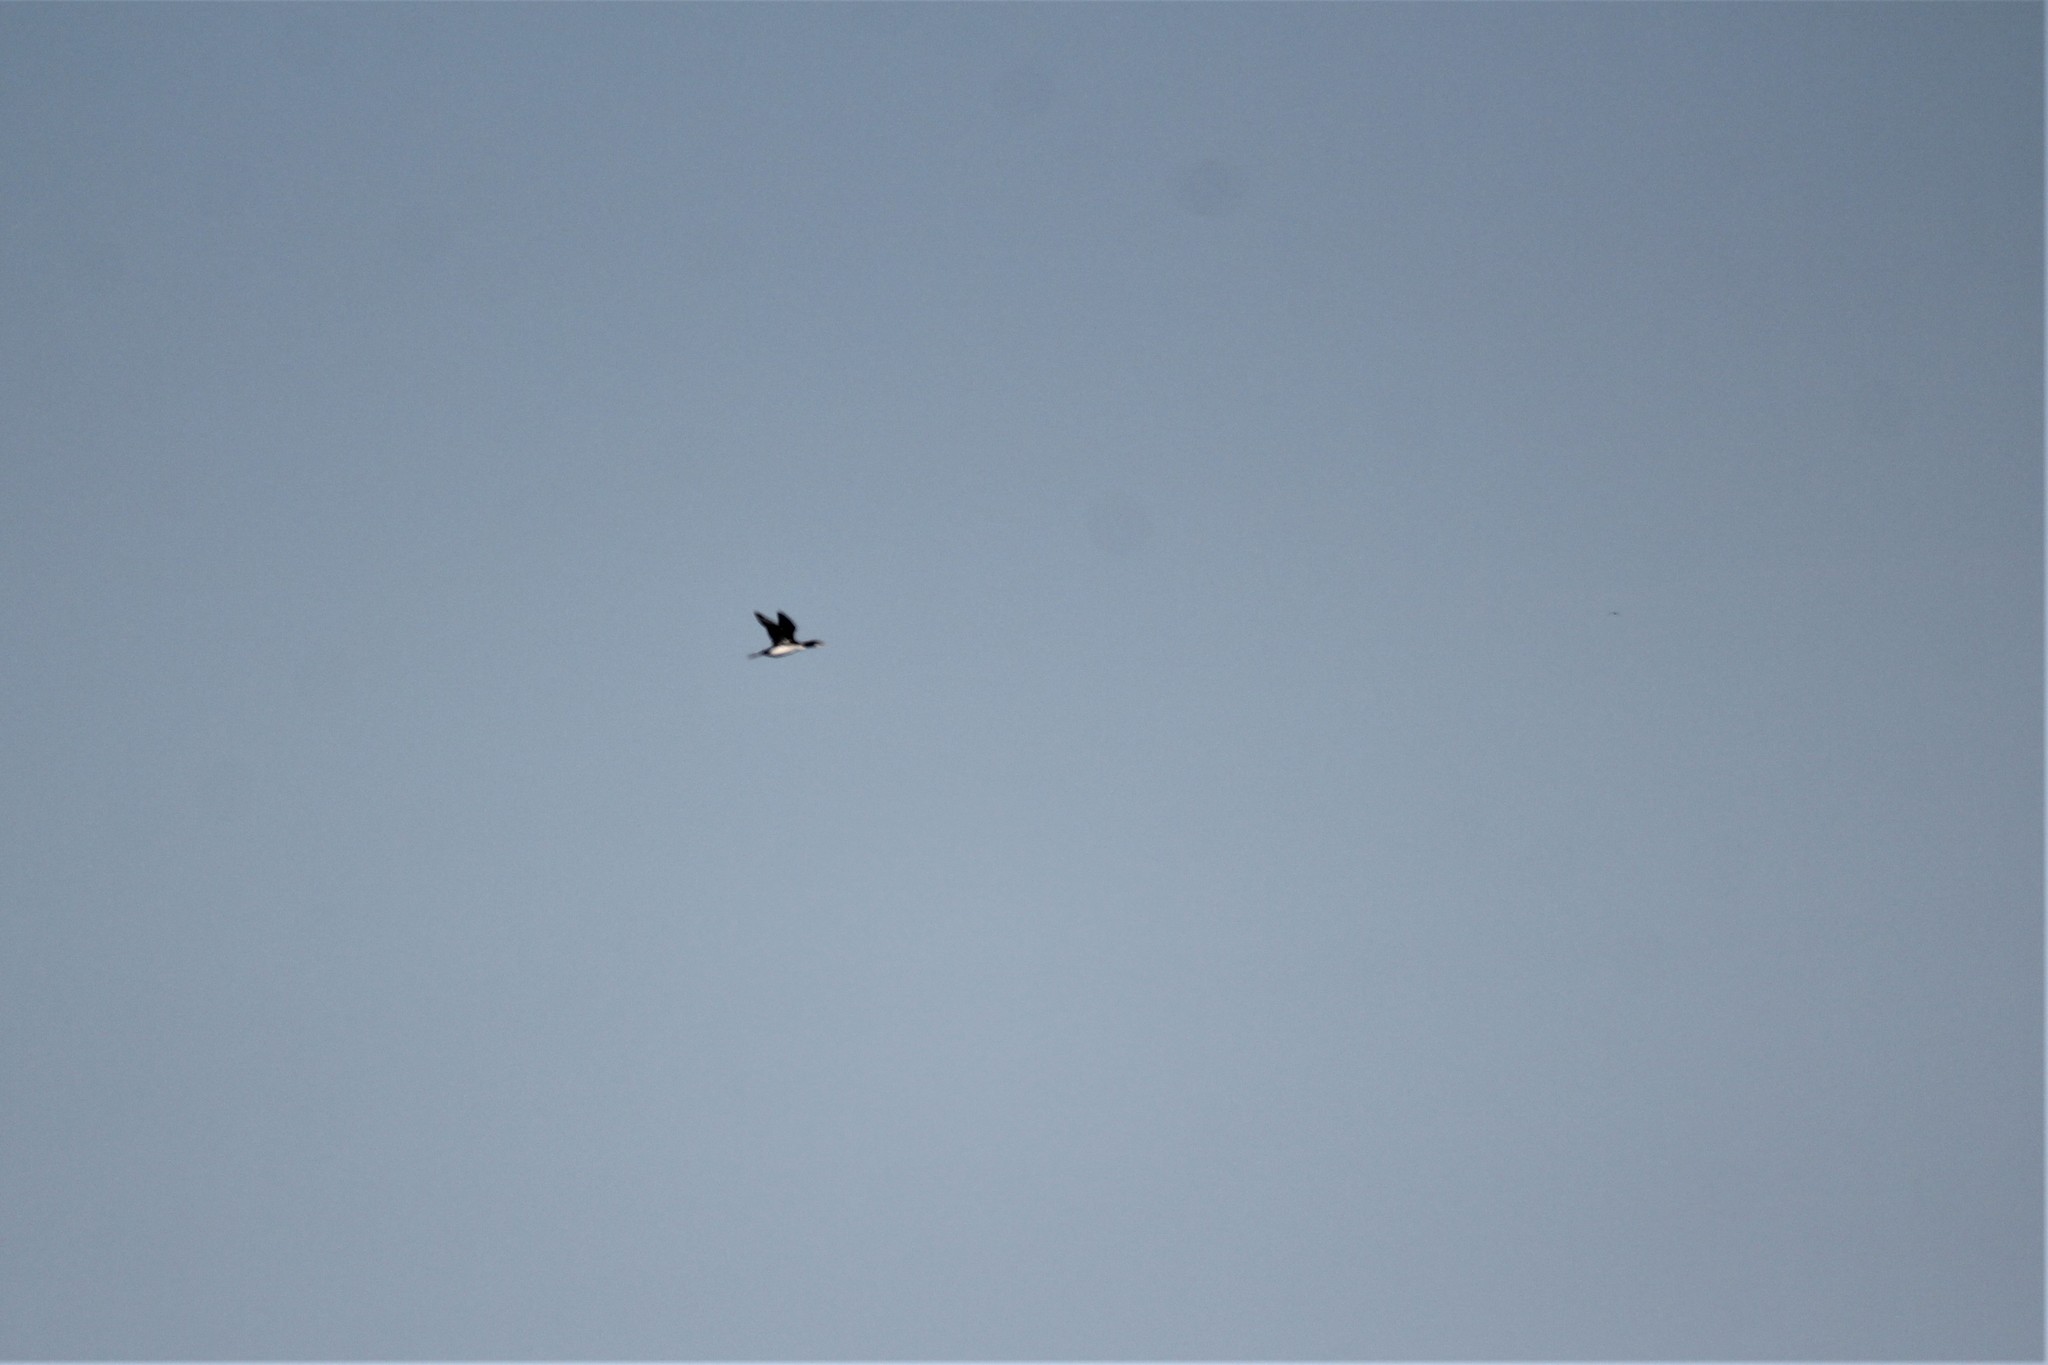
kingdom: Animalia
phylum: Chordata
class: Aves
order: Gaviiformes
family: Gaviidae
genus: Gavia
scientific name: Gavia immer
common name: Common loon
